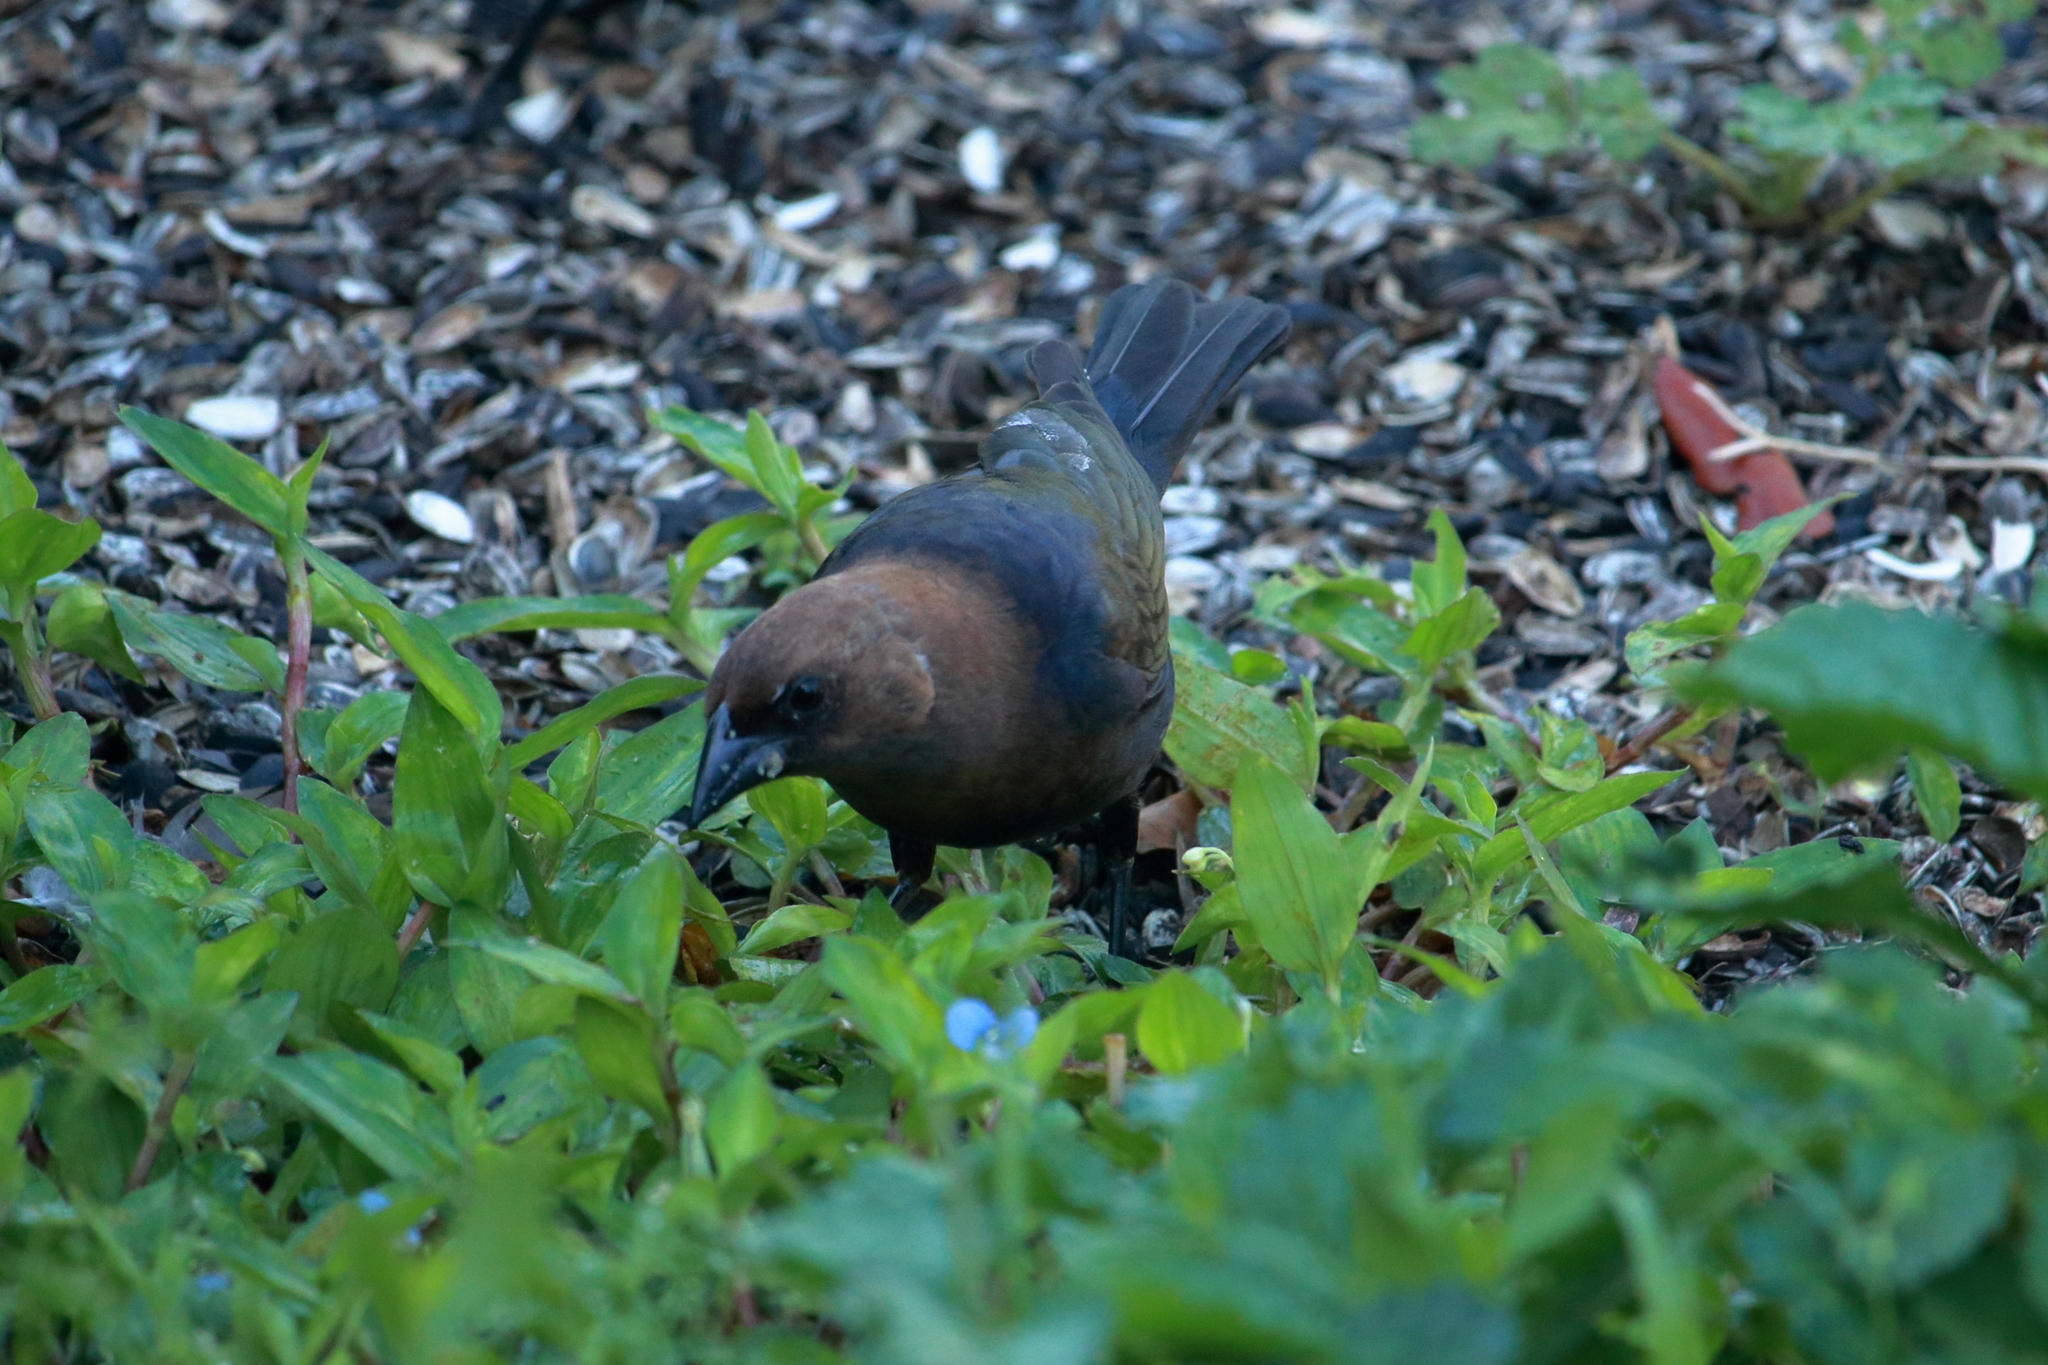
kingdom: Animalia
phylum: Chordata
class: Aves
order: Passeriformes
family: Icteridae
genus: Molothrus
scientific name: Molothrus ater
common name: Brown-headed cowbird
